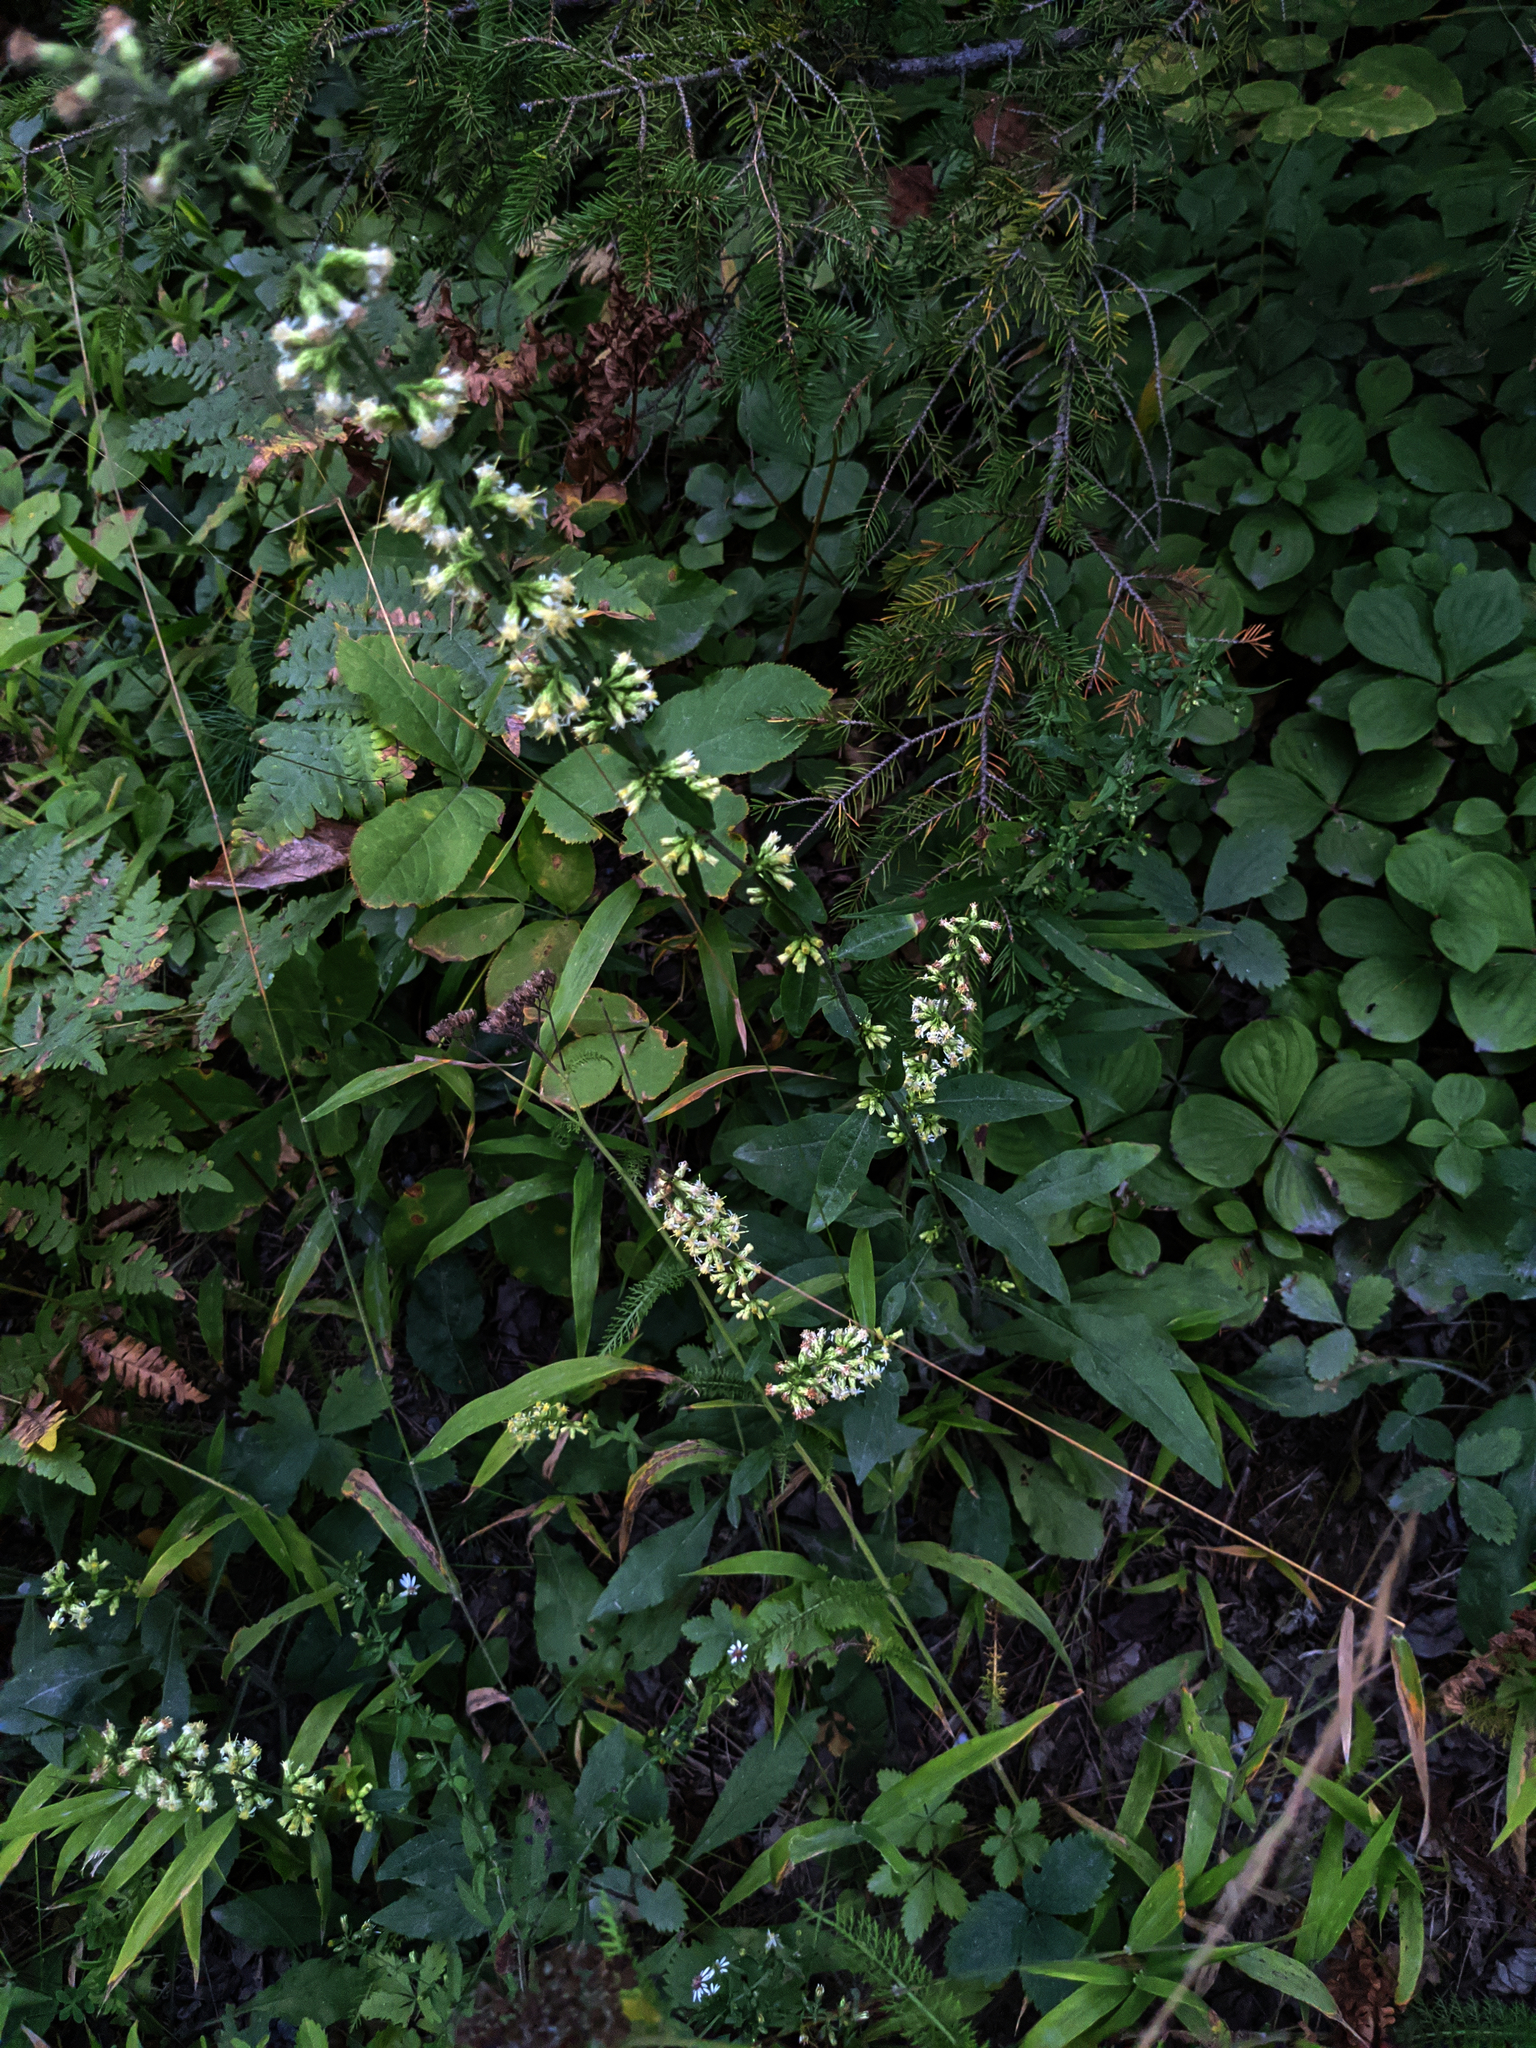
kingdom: Plantae
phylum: Tracheophyta
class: Magnoliopsida
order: Asterales
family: Asteraceae
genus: Solidago
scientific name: Solidago bicolor
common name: Silverrod
